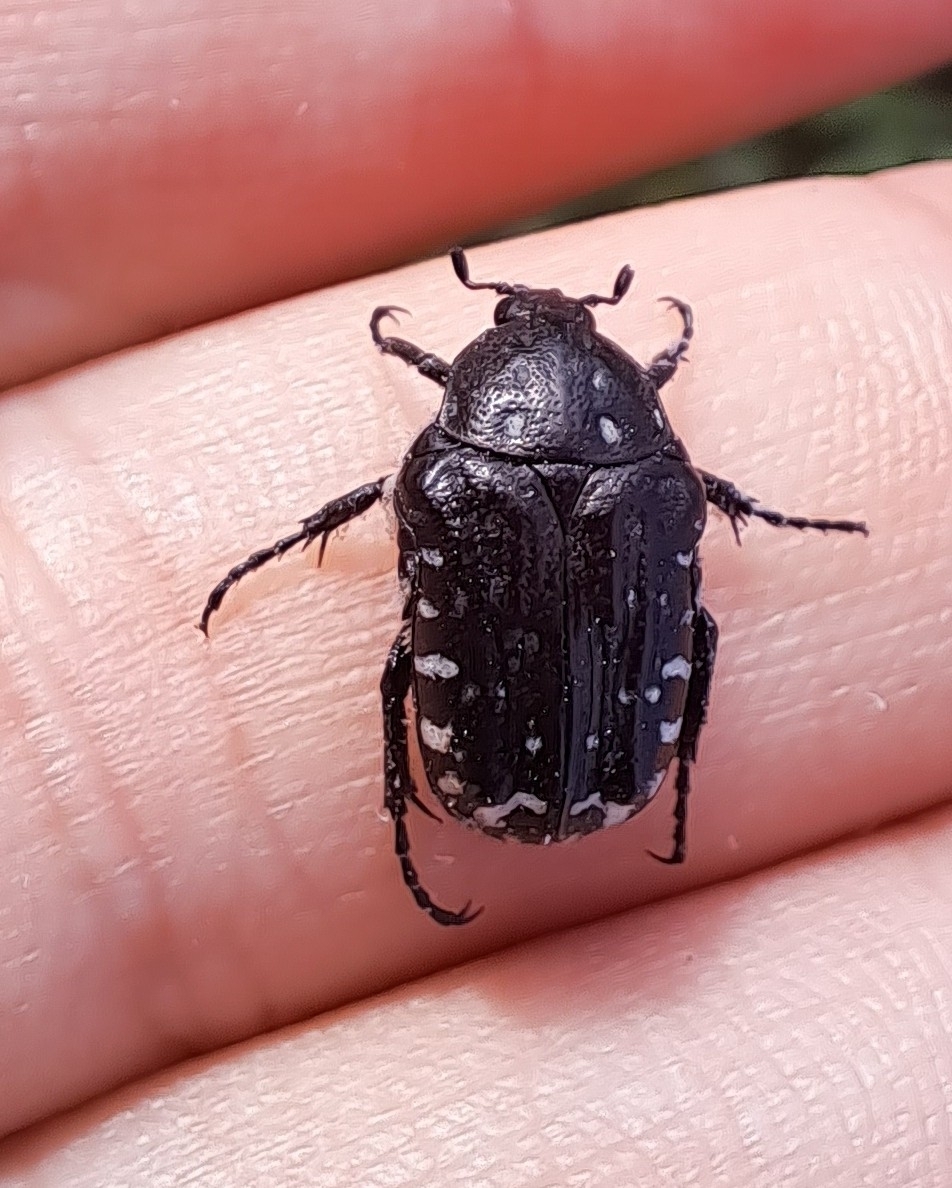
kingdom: Animalia
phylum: Arthropoda
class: Insecta
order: Coleoptera
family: Scarabaeidae
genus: Oxythyrea
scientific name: Oxythyrea funesta
